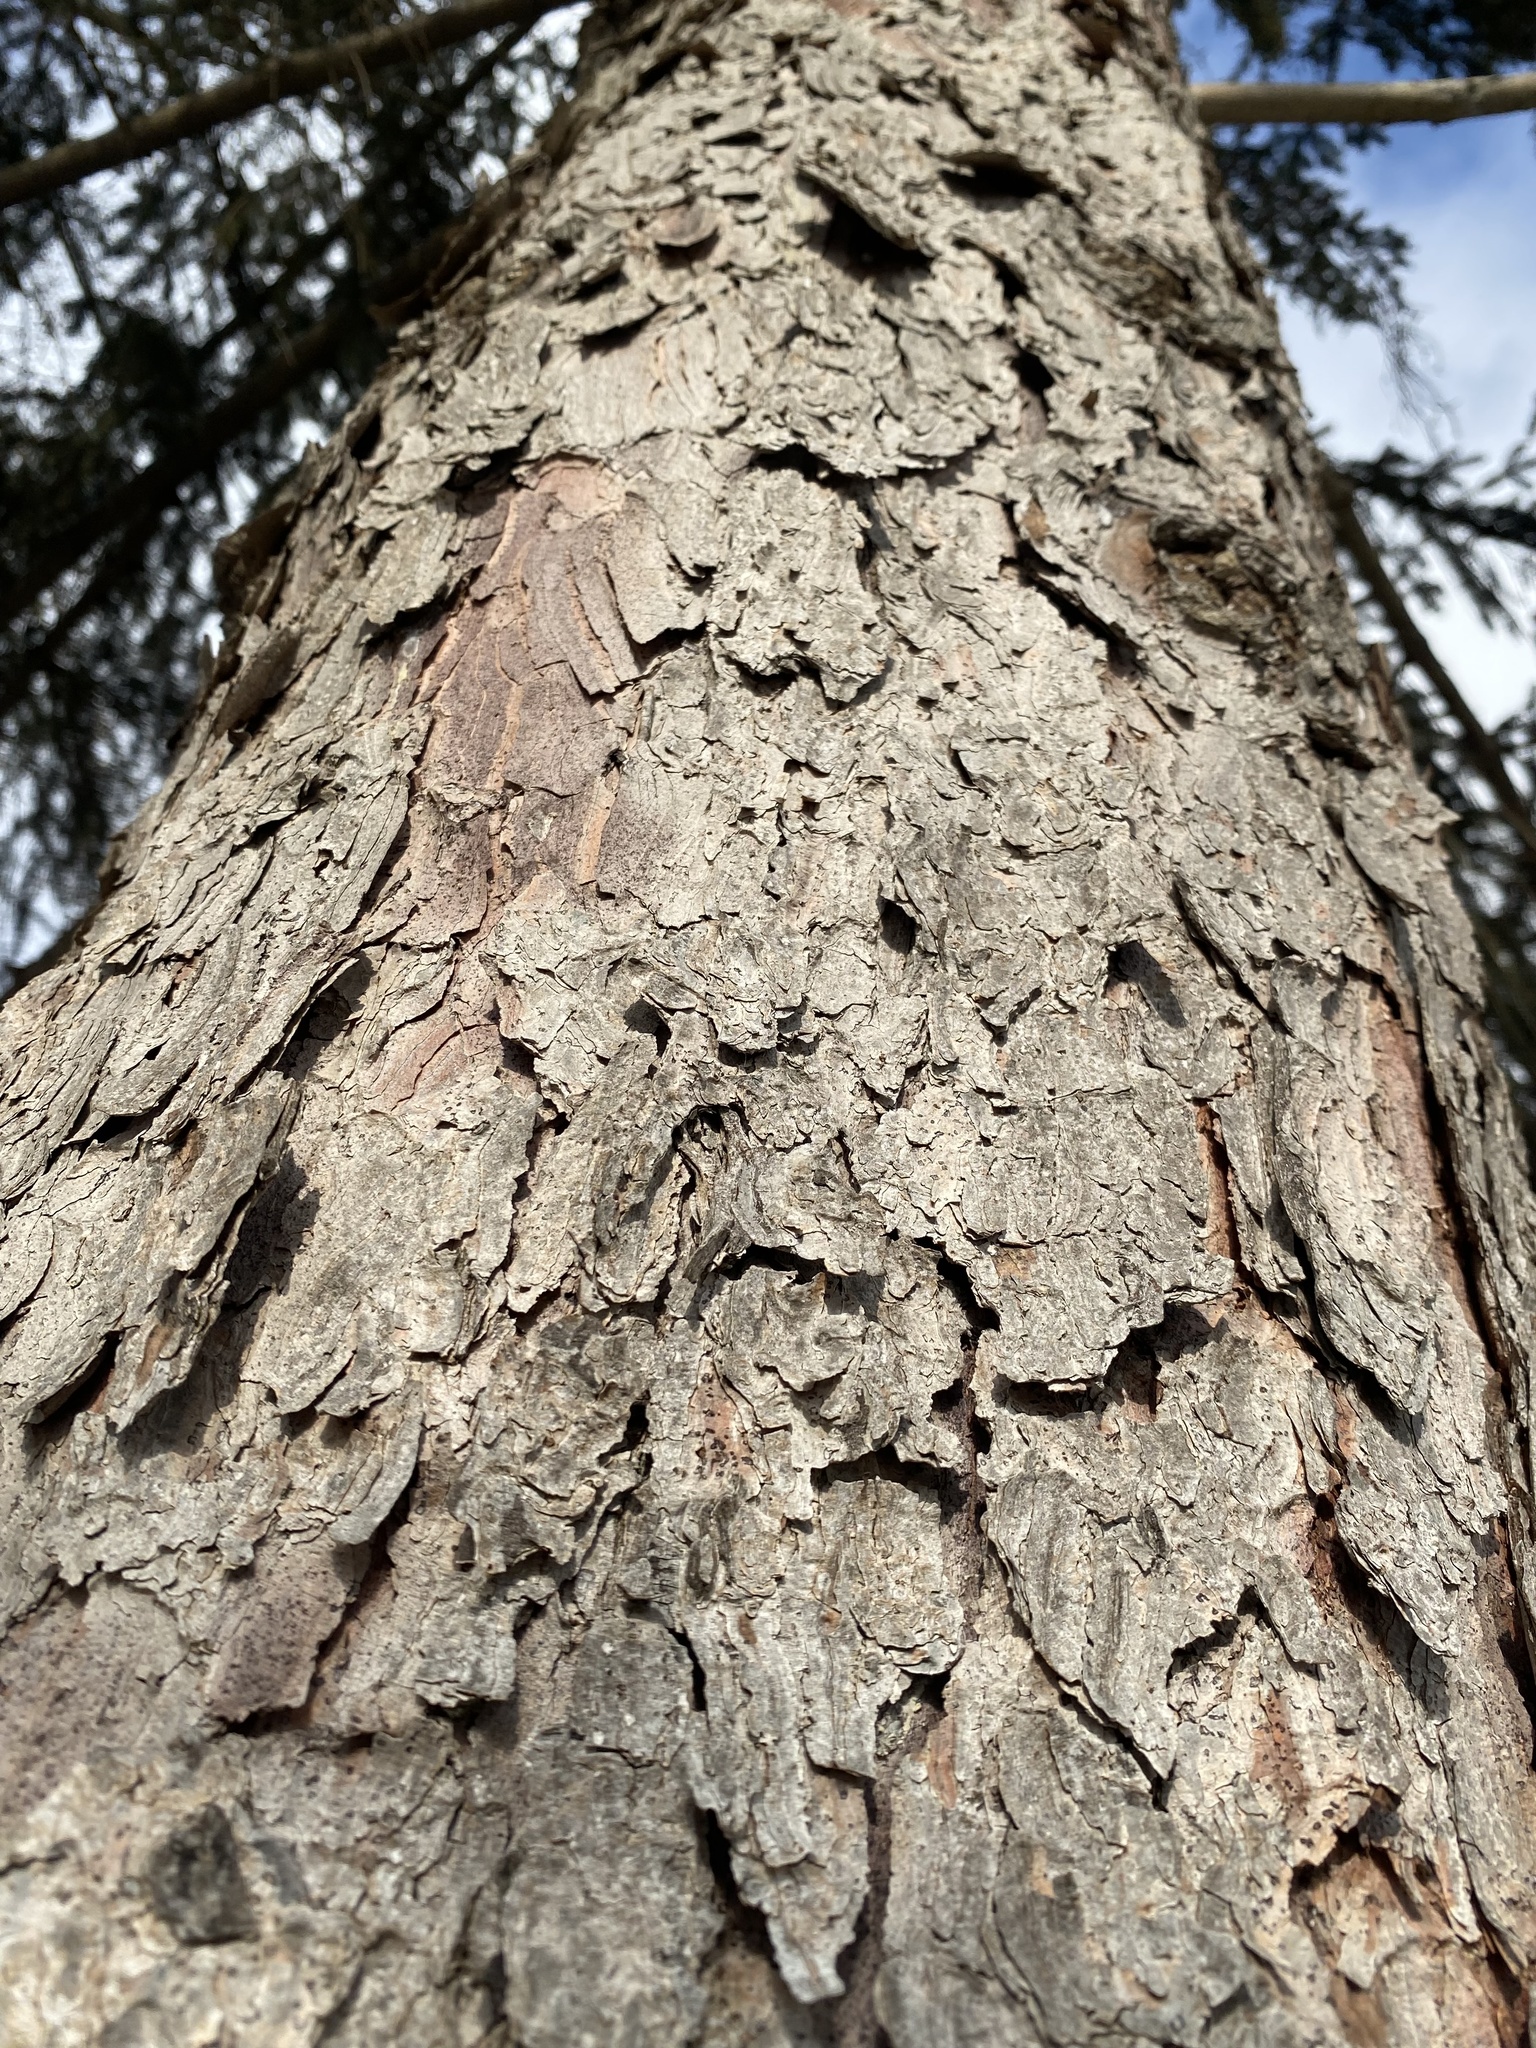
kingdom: Plantae
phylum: Tracheophyta
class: Pinopsida
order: Pinales
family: Pinaceae
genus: Picea
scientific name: Picea abies
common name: Norway spruce
